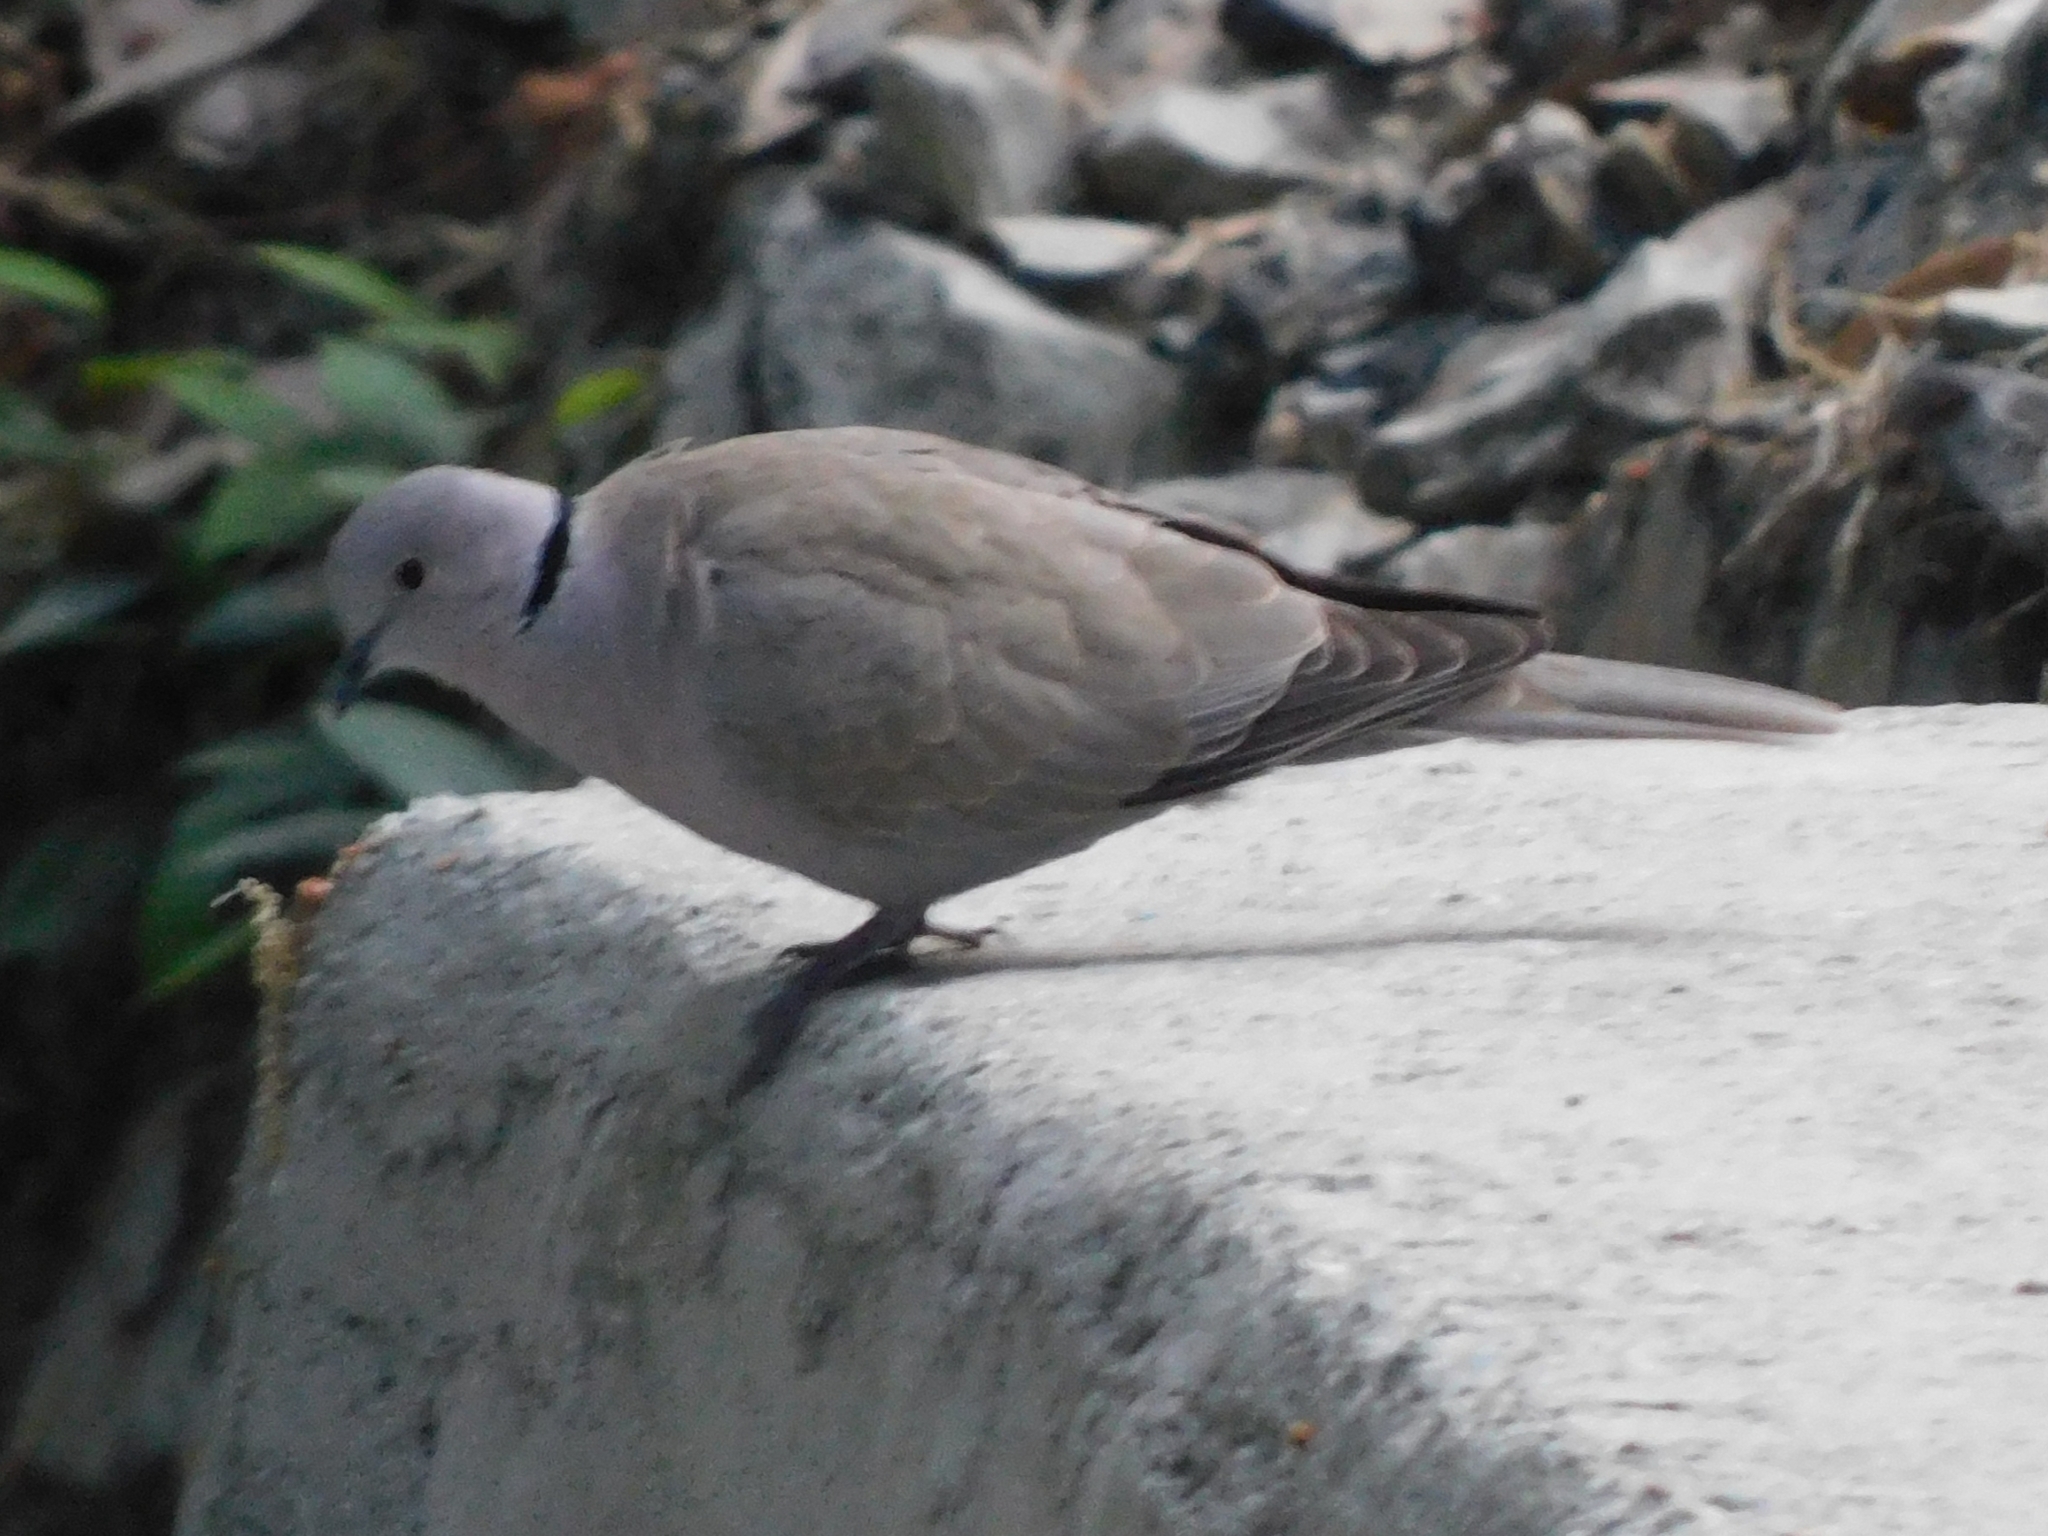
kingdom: Animalia
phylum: Chordata
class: Aves
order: Columbiformes
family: Columbidae
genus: Streptopelia
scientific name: Streptopelia decaocto
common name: Eurasian collared dove
